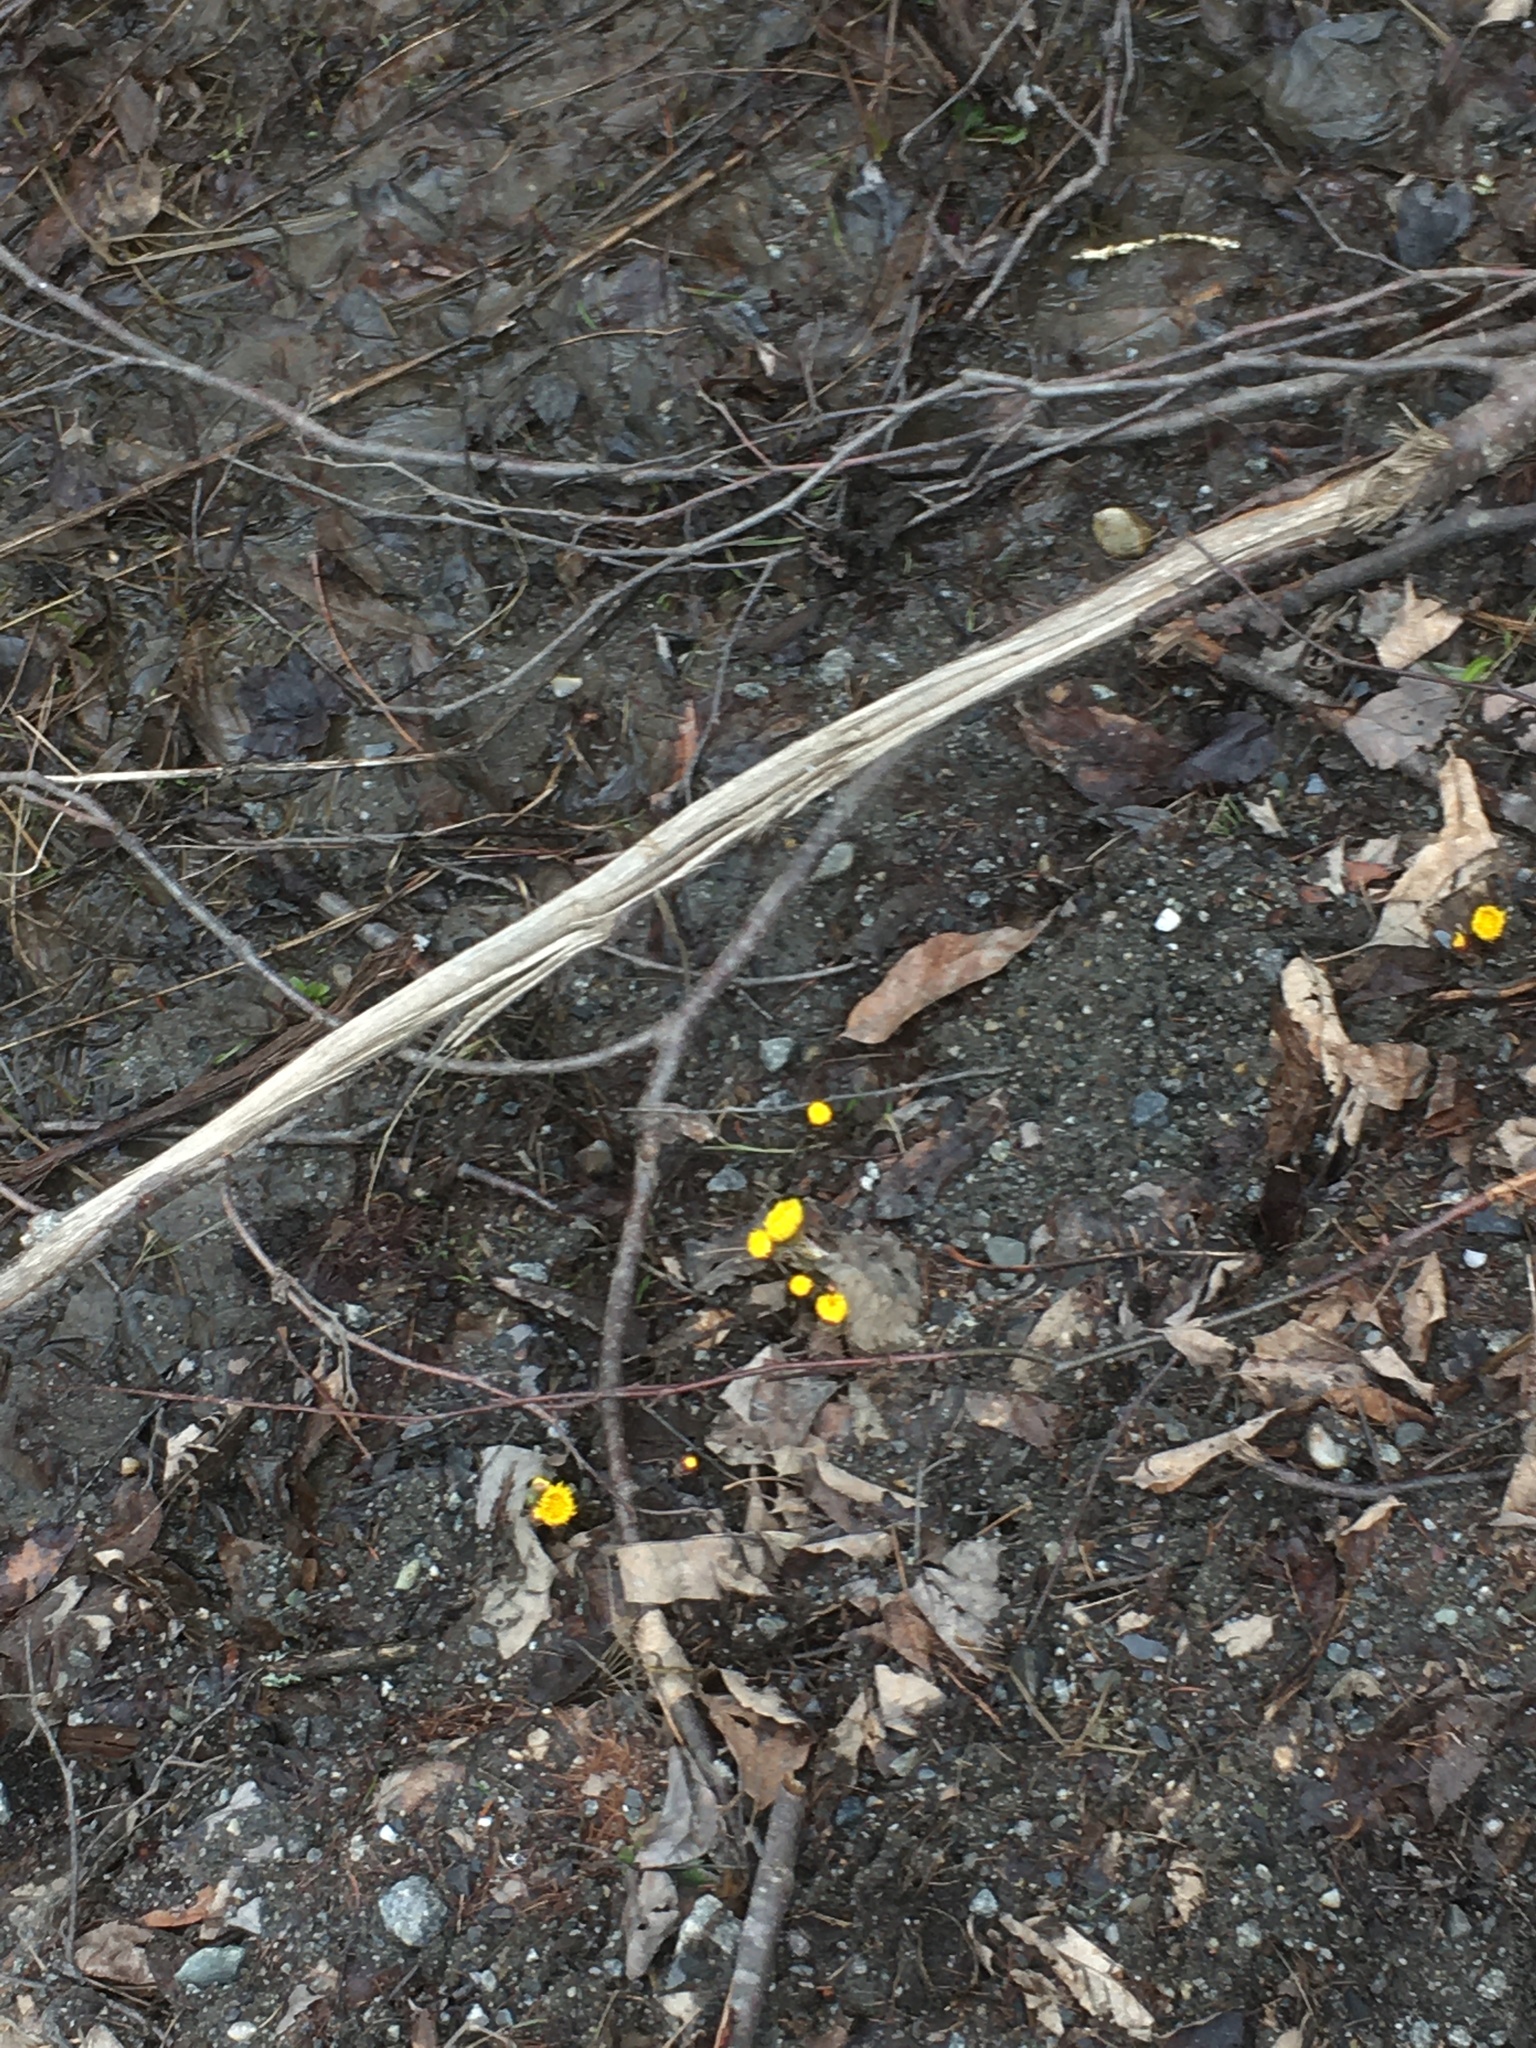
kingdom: Plantae
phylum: Tracheophyta
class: Magnoliopsida
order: Asterales
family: Asteraceae
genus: Tussilago
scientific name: Tussilago farfara
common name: Coltsfoot
